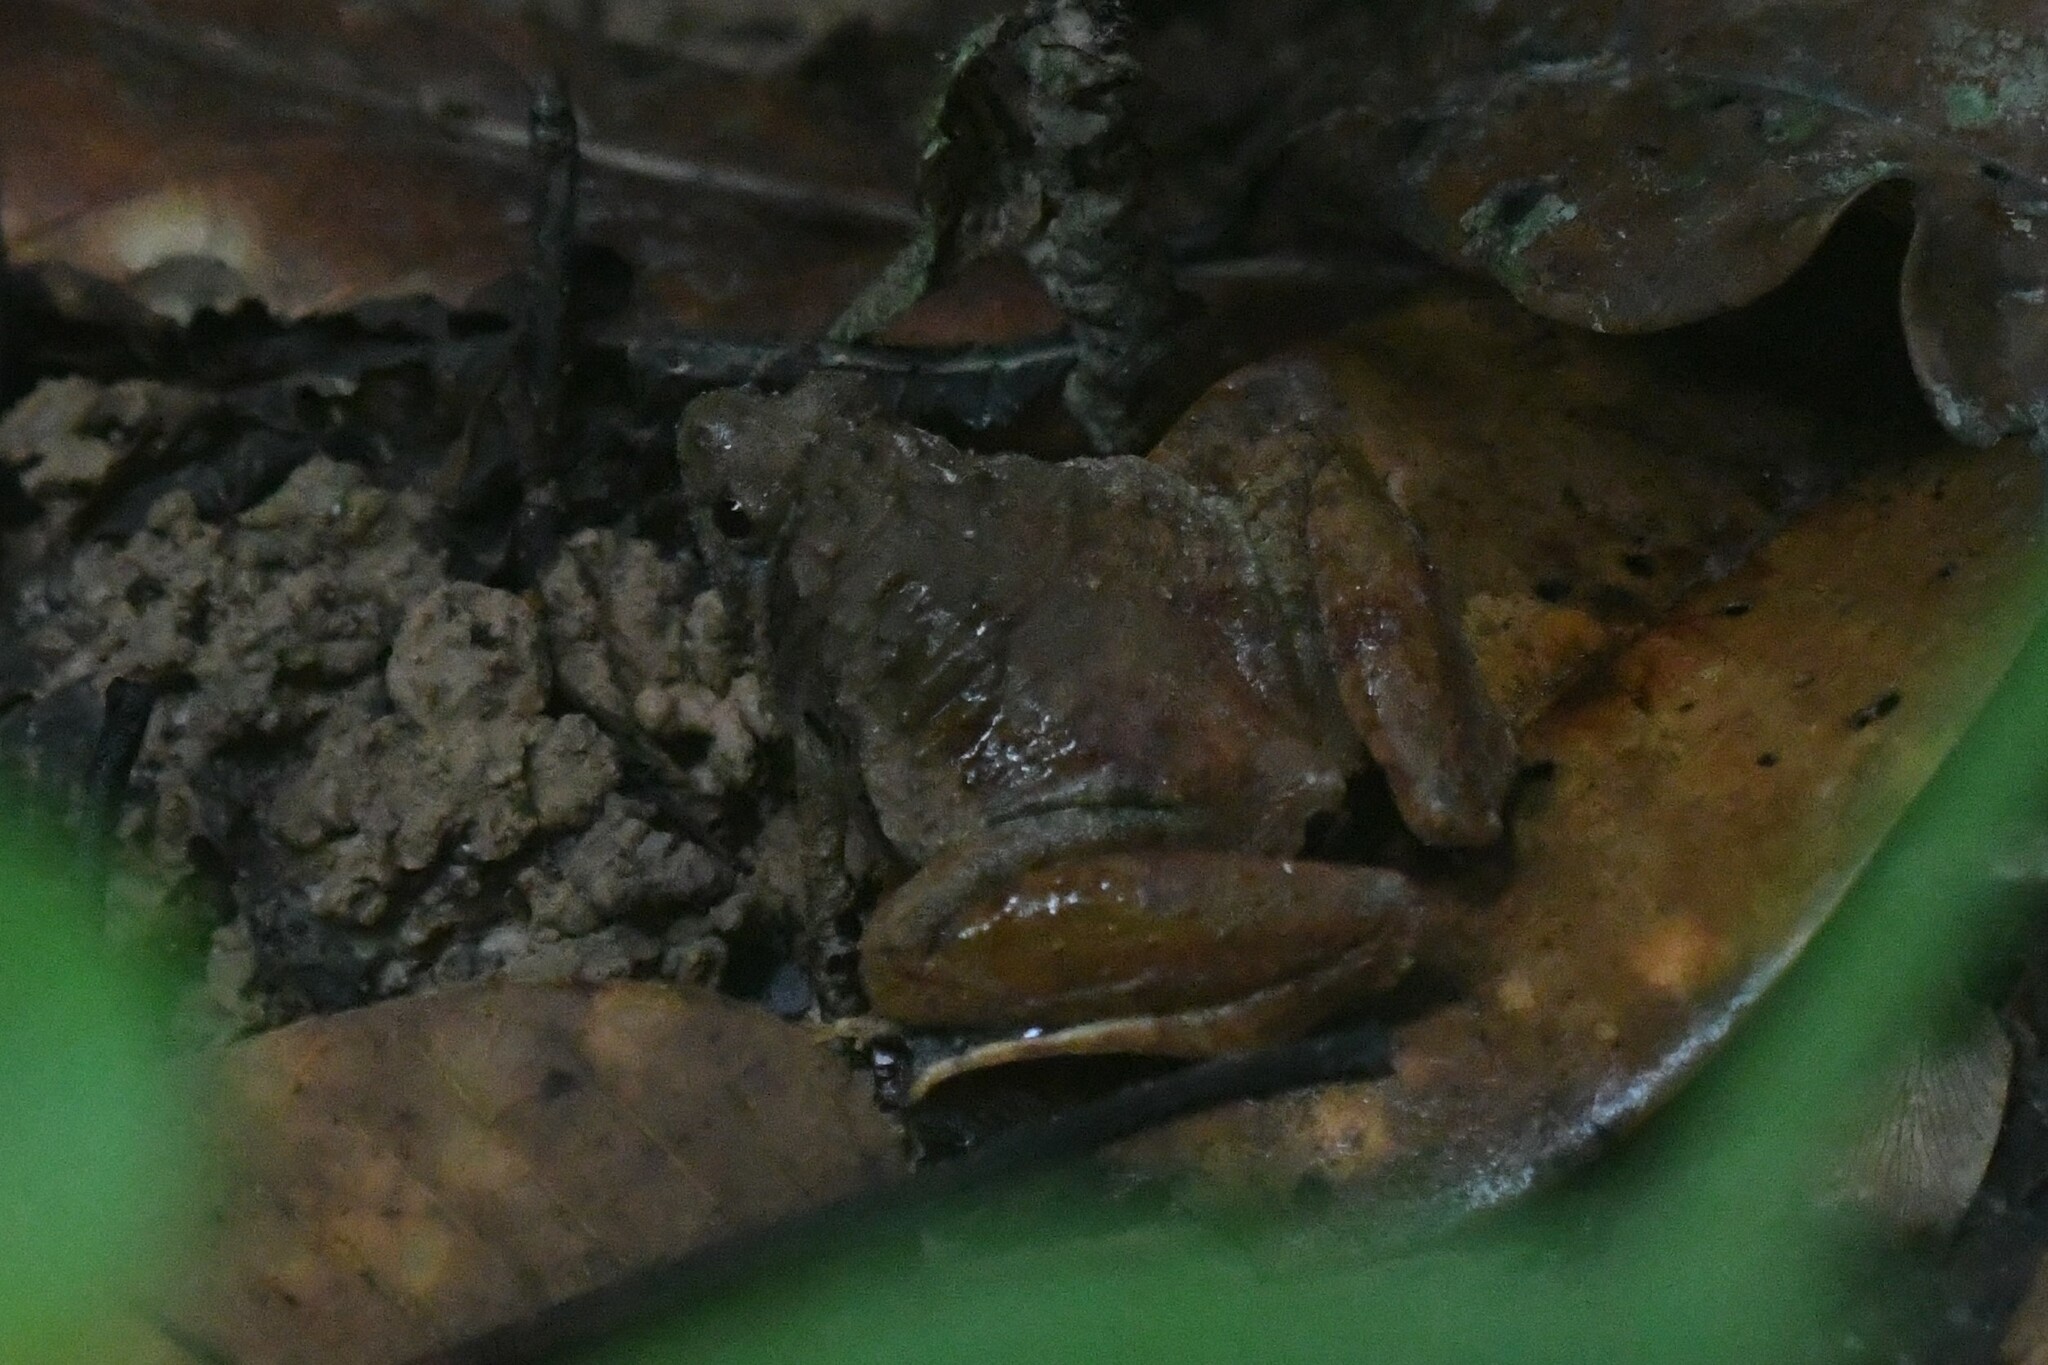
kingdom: Animalia
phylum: Chordata
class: Amphibia
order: Anura
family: Microhylidae
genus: Microhyla
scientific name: Microhyla berdmorei
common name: Berdmore’s narrow-mouthed frog,large pygmy frog
